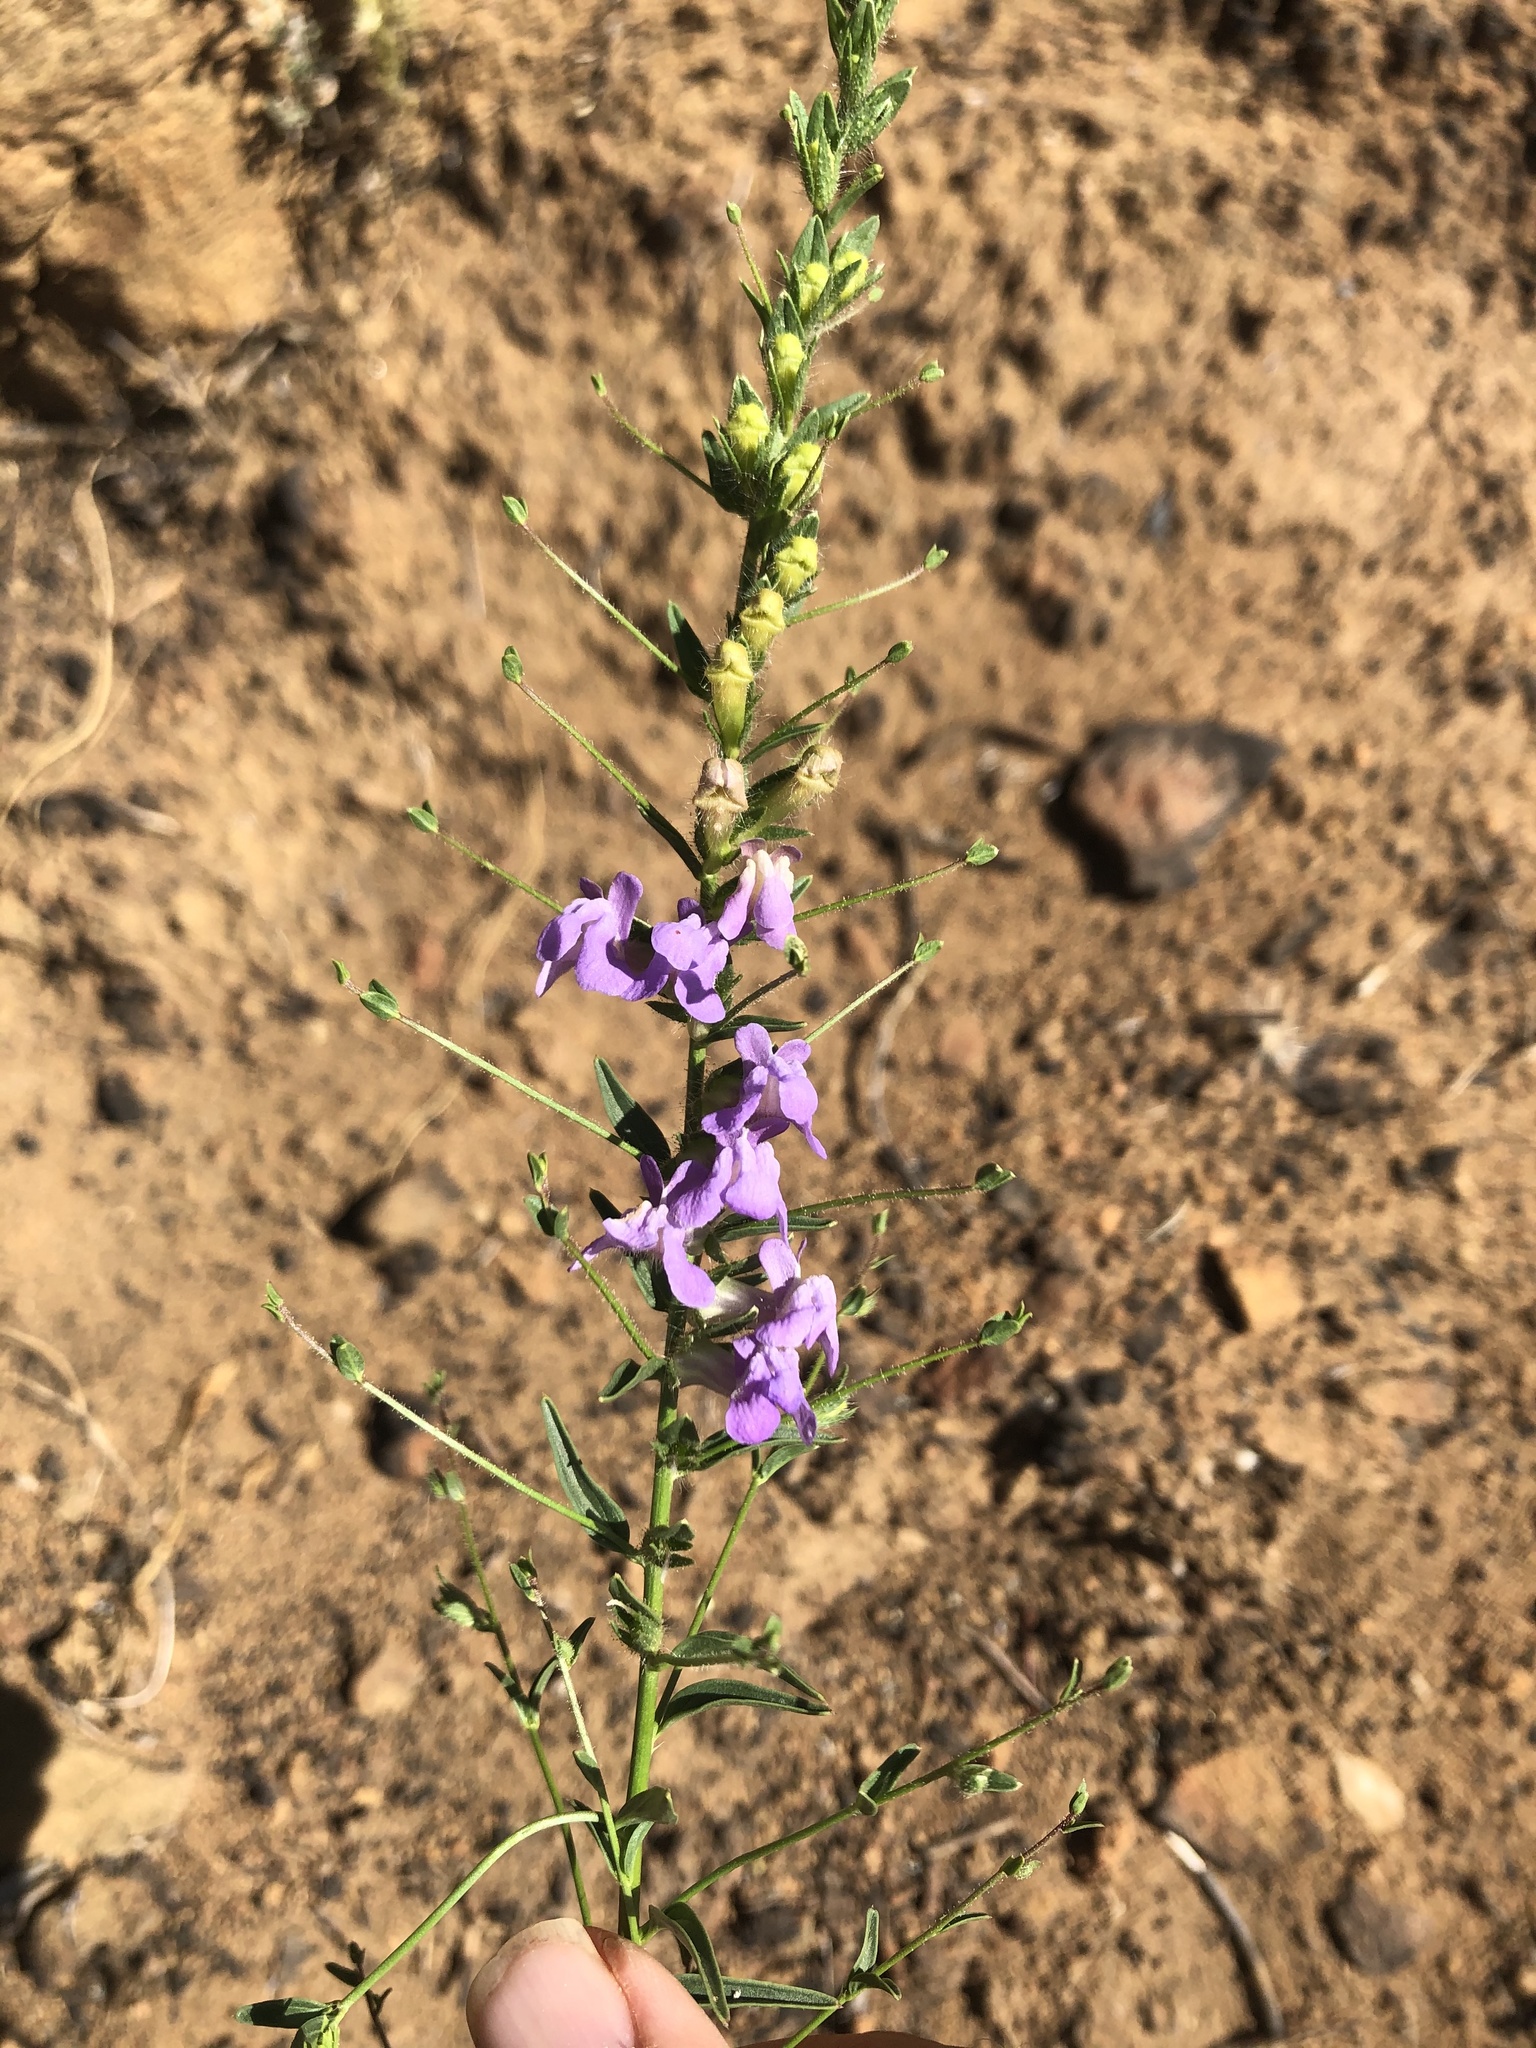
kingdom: Plantae
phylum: Tracheophyta
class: Magnoliopsida
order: Lamiales
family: Plantaginaceae
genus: Sairocarpus
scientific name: Sairocarpus vexillocalyculatus
